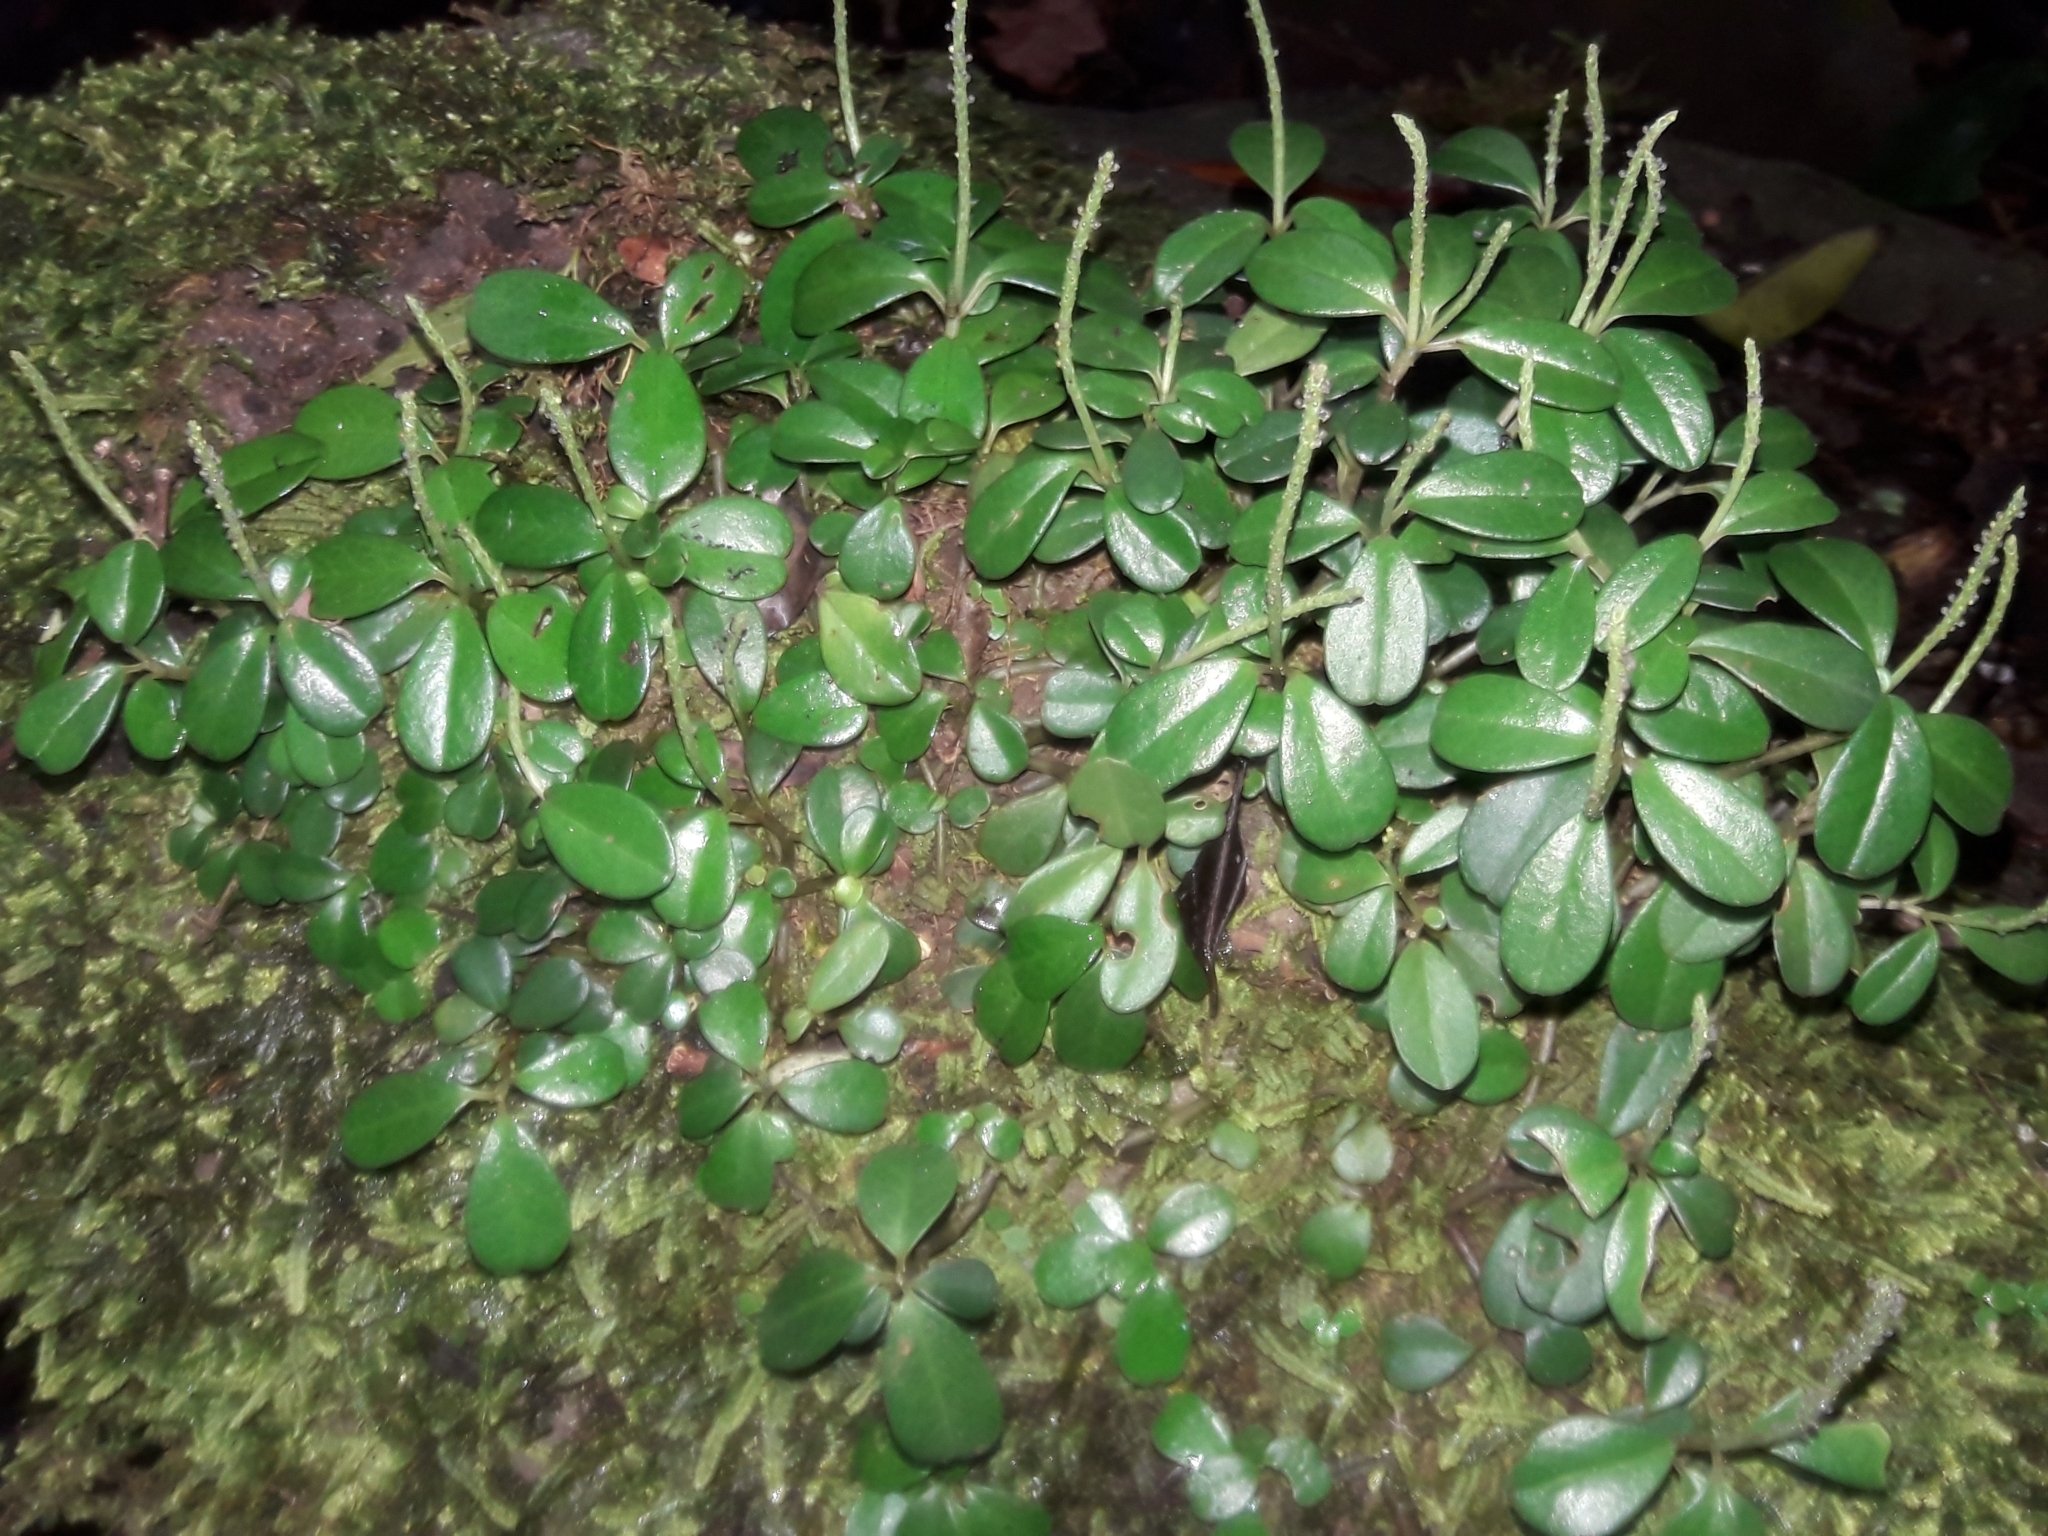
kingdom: Plantae
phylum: Tracheophyta
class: Magnoliopsida
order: Piperales
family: Piperaceae
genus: Peperomia
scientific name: Peperomia retusa
